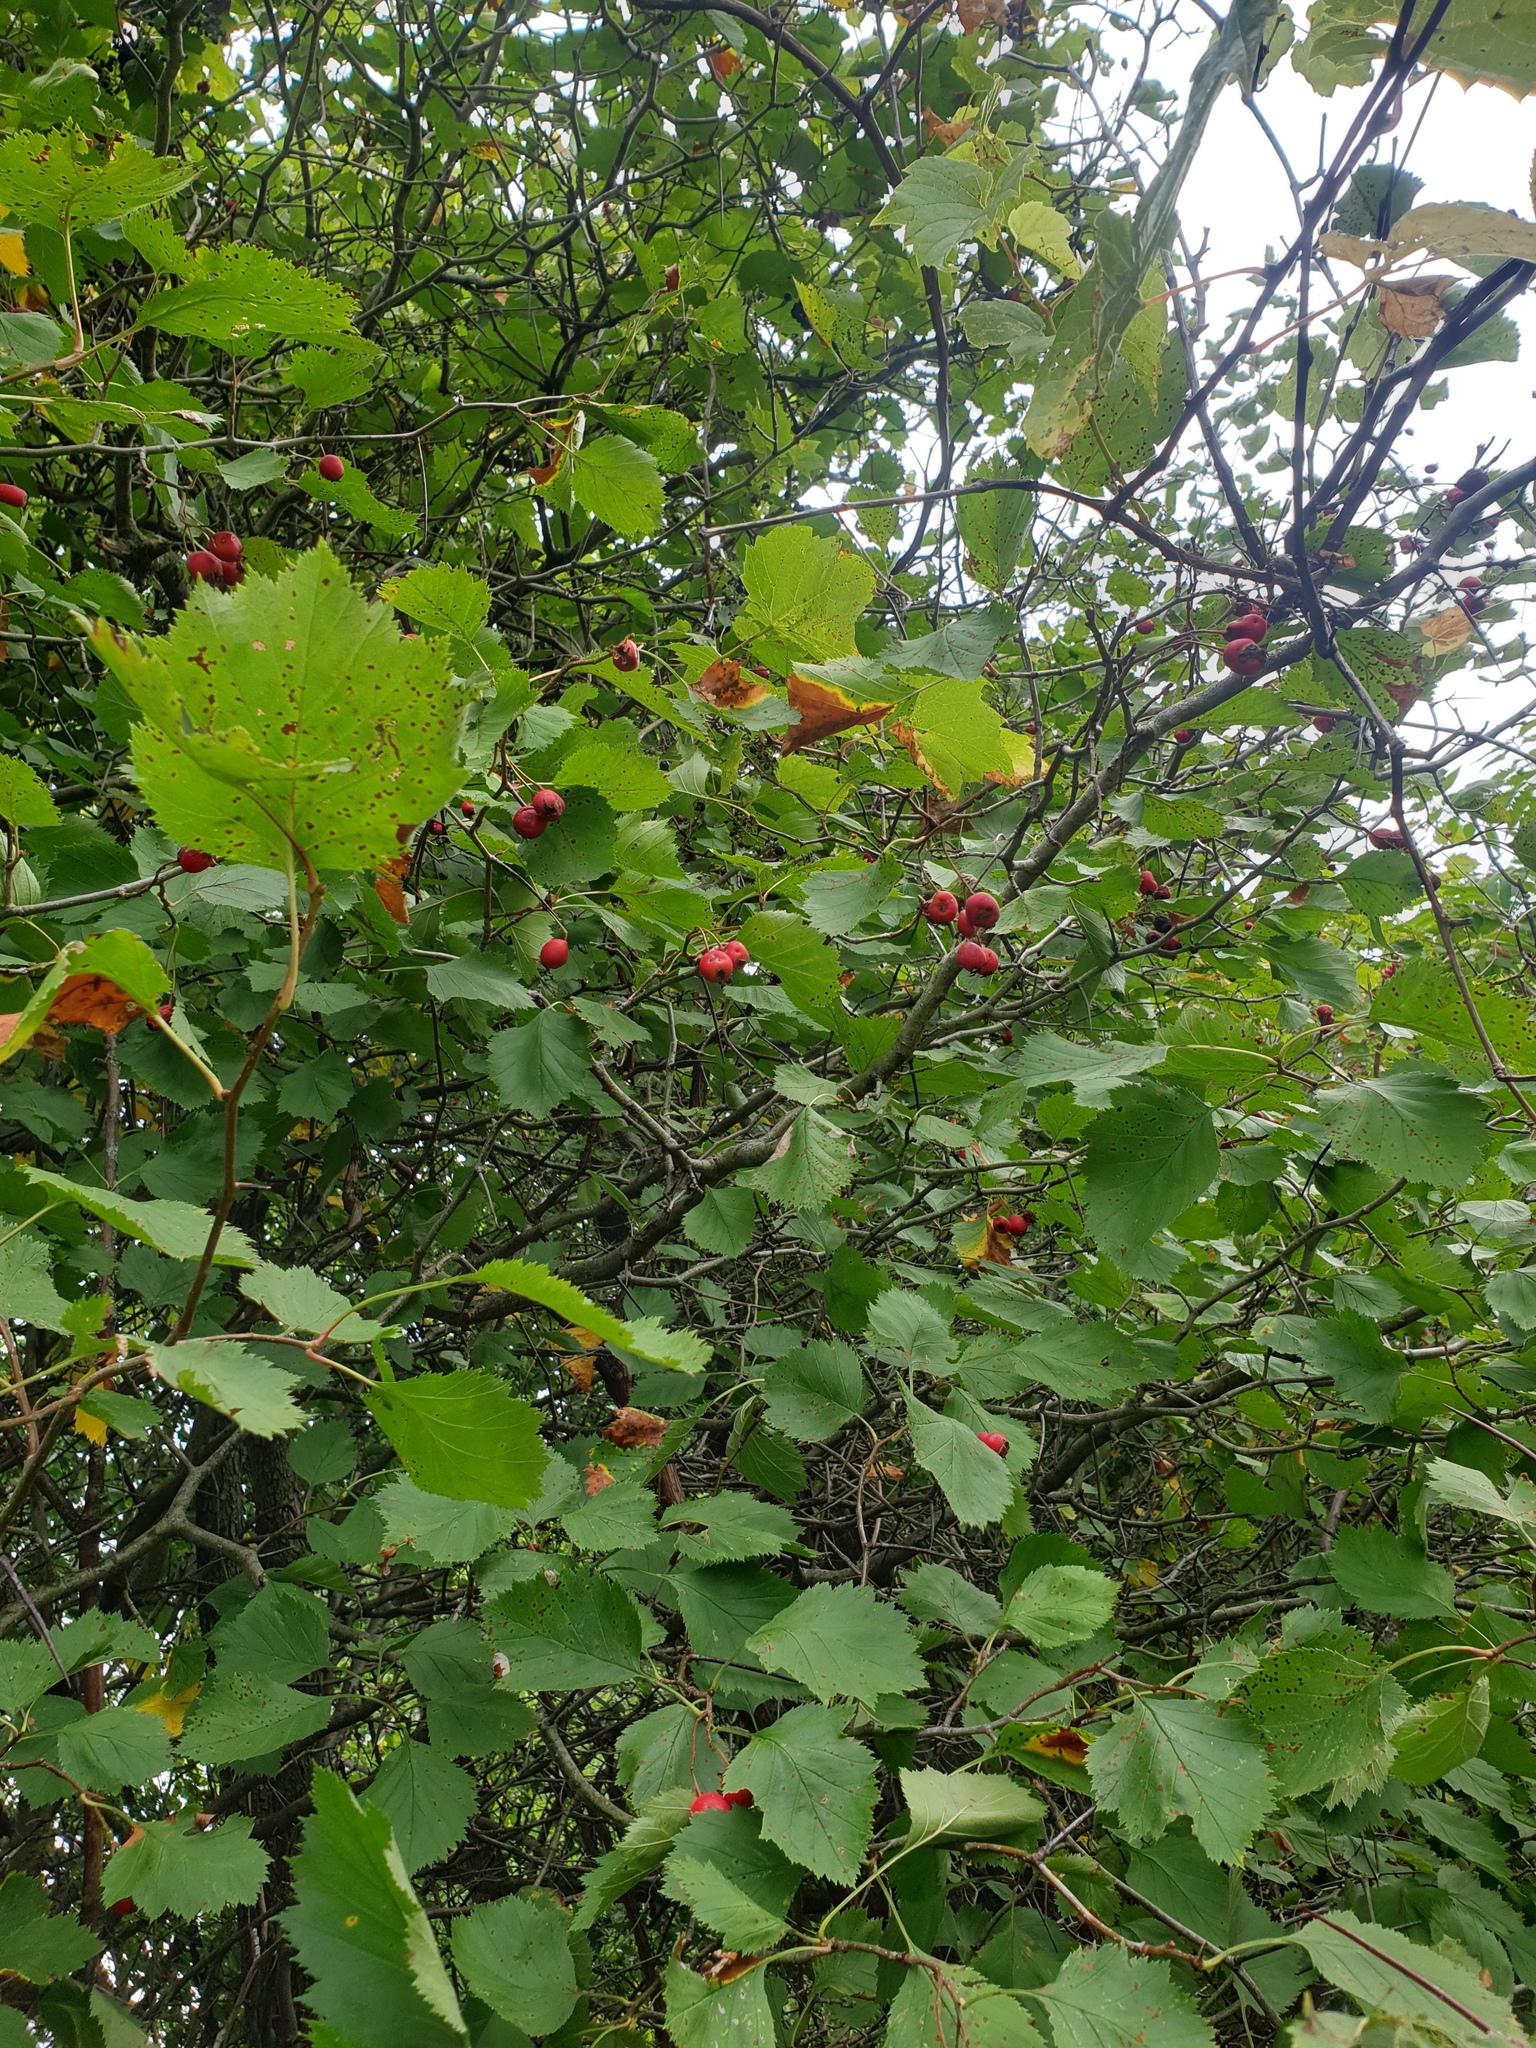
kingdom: Plantae
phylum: Tracheophyta
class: Magnoliopsida
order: Rosales
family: Rosaceae
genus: Crataegus
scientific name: Crataegus submollis
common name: Hairy cockspurthorn
